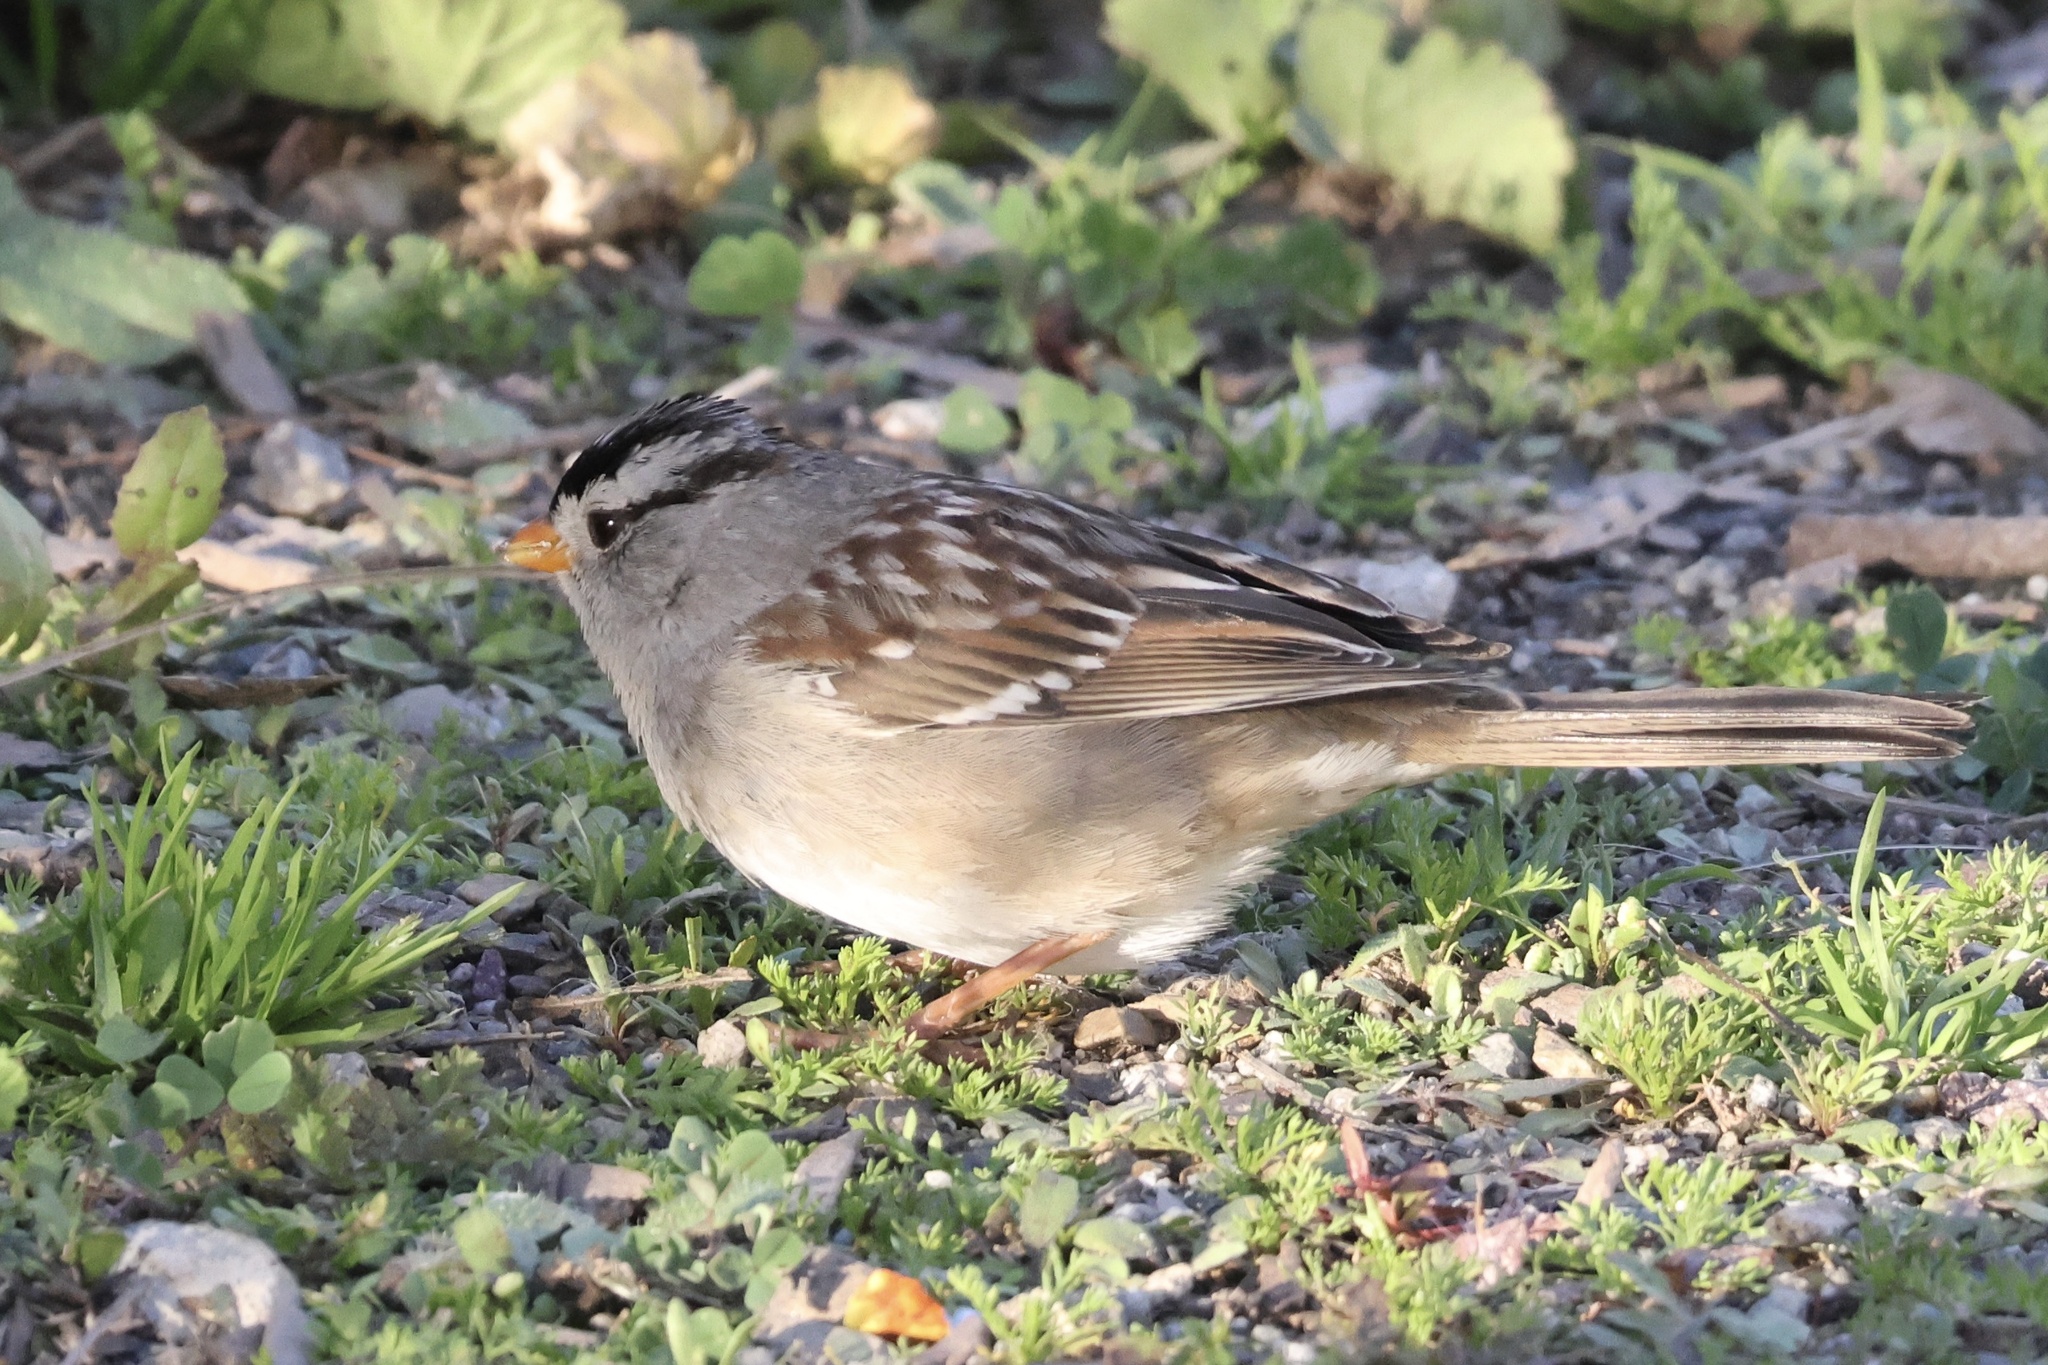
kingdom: Animalia
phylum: Chordata
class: Aves
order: Passeriformes
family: Passerellidae
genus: Zonotrichia
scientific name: Zonotrichia leucophrys
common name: White-crowned sparrow
